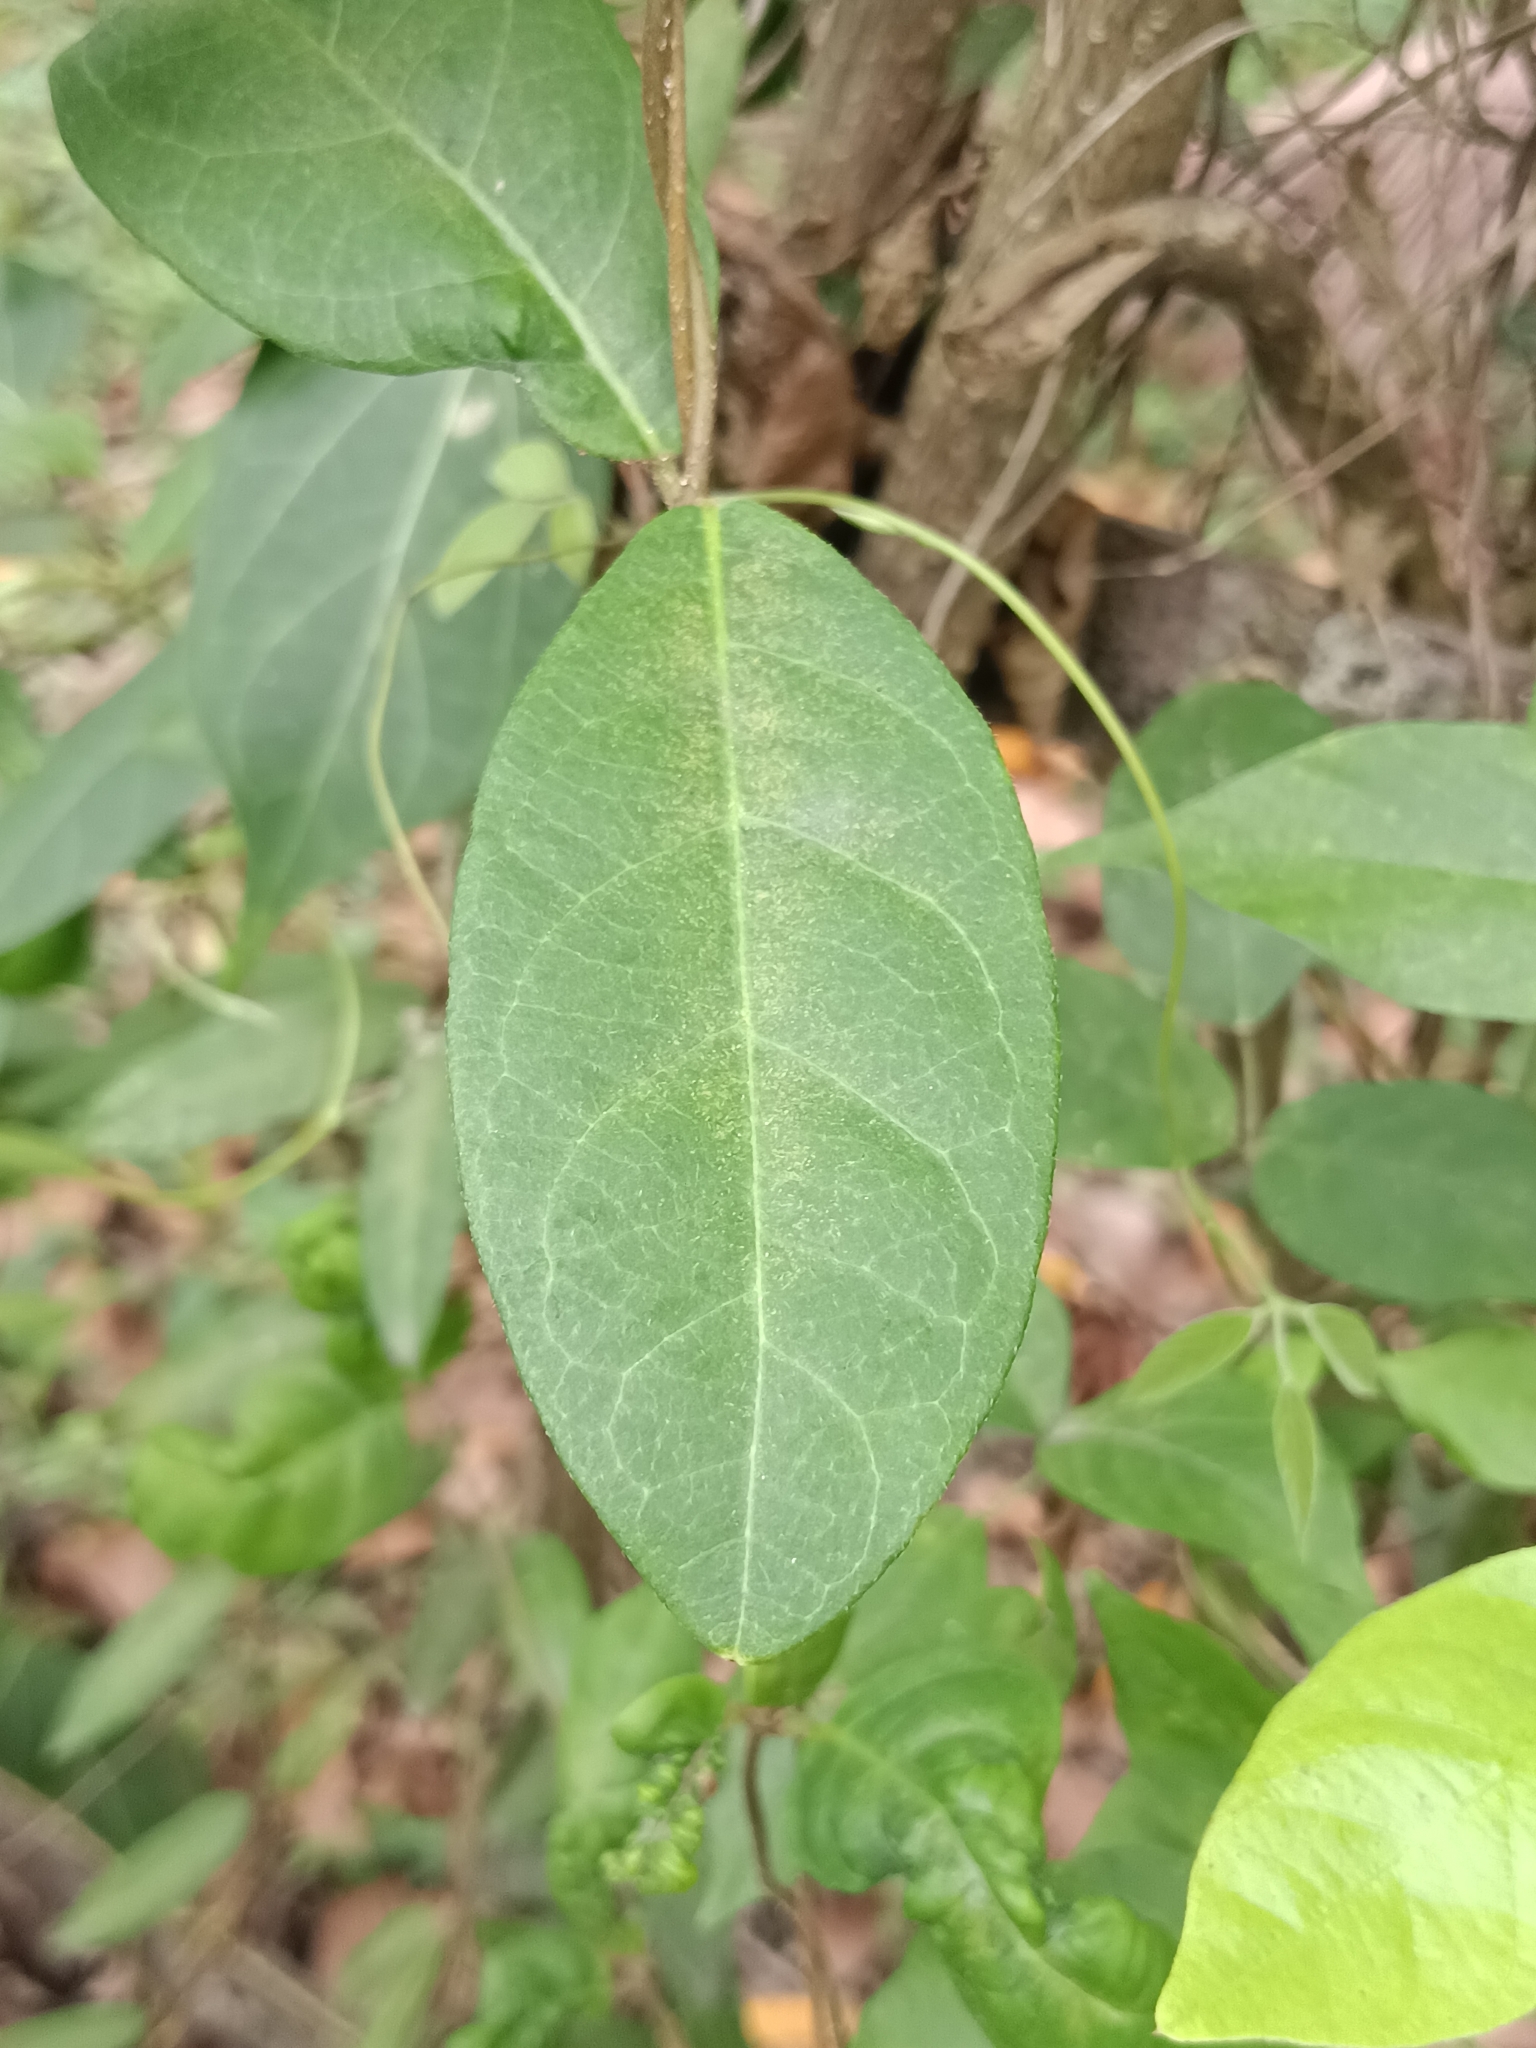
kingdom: Plantae
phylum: Tracheophyta
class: Magnoliopsida
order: Gentianales
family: Apocynaceae
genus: Ichnocarpus
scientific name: Ichnocarpus frutescens
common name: Ichnocarpus
